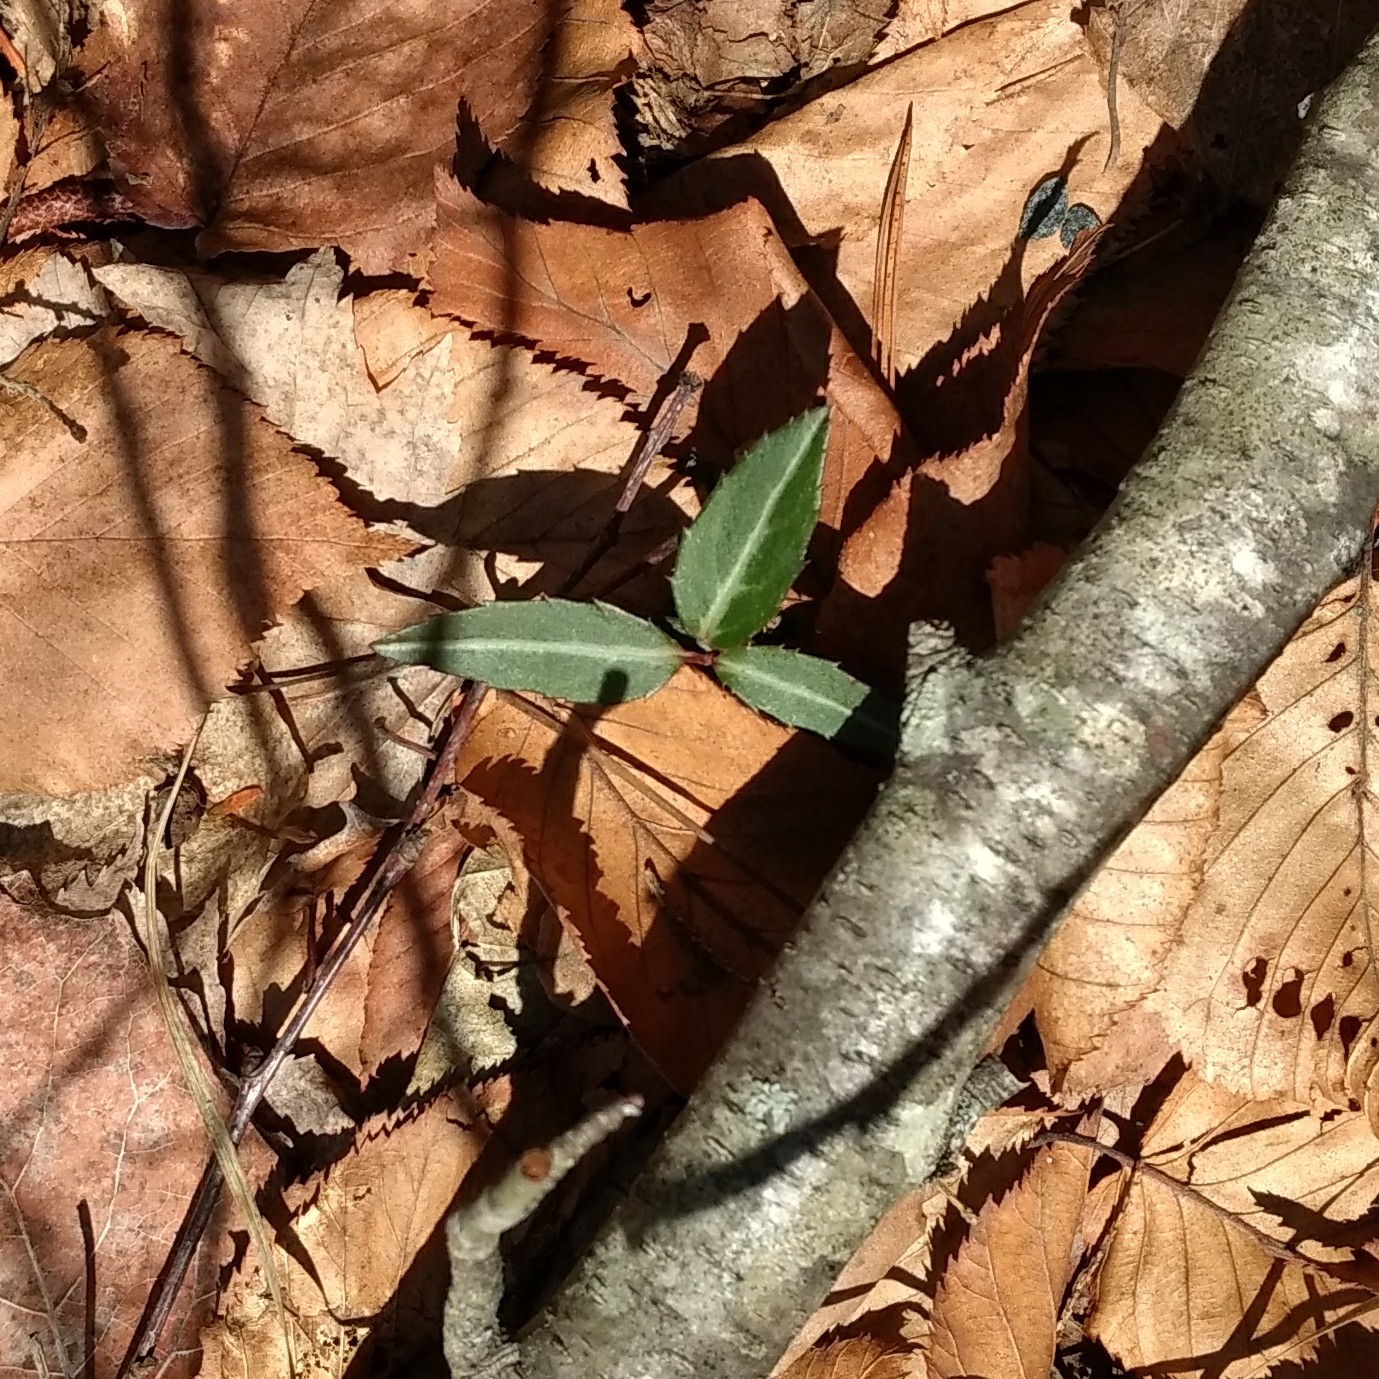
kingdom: Plantae
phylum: Tracheophyta
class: Magnoliopsida
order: Ericales
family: Ericaceae
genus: Chimaphila
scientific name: Chimaphila maculata
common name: Spotted pipsissewa
